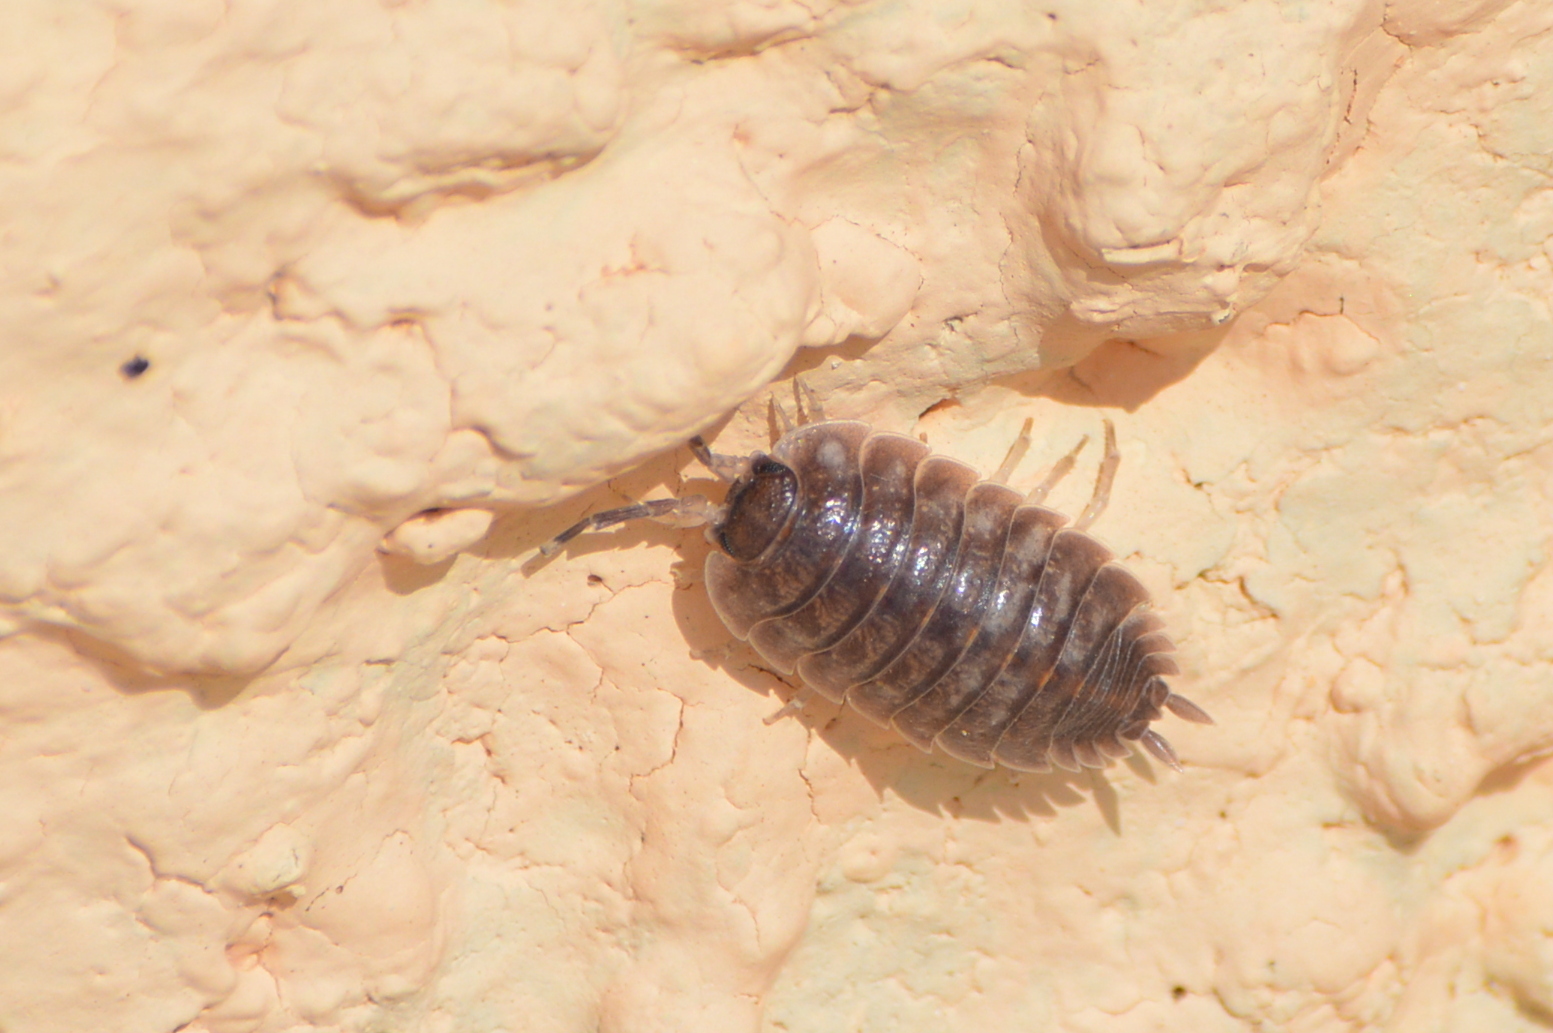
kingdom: Animalia
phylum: Arthropoda
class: Malacostraca
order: Isopoda
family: Porcellionidae
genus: Porcellio
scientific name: Porcellio obsoletus
